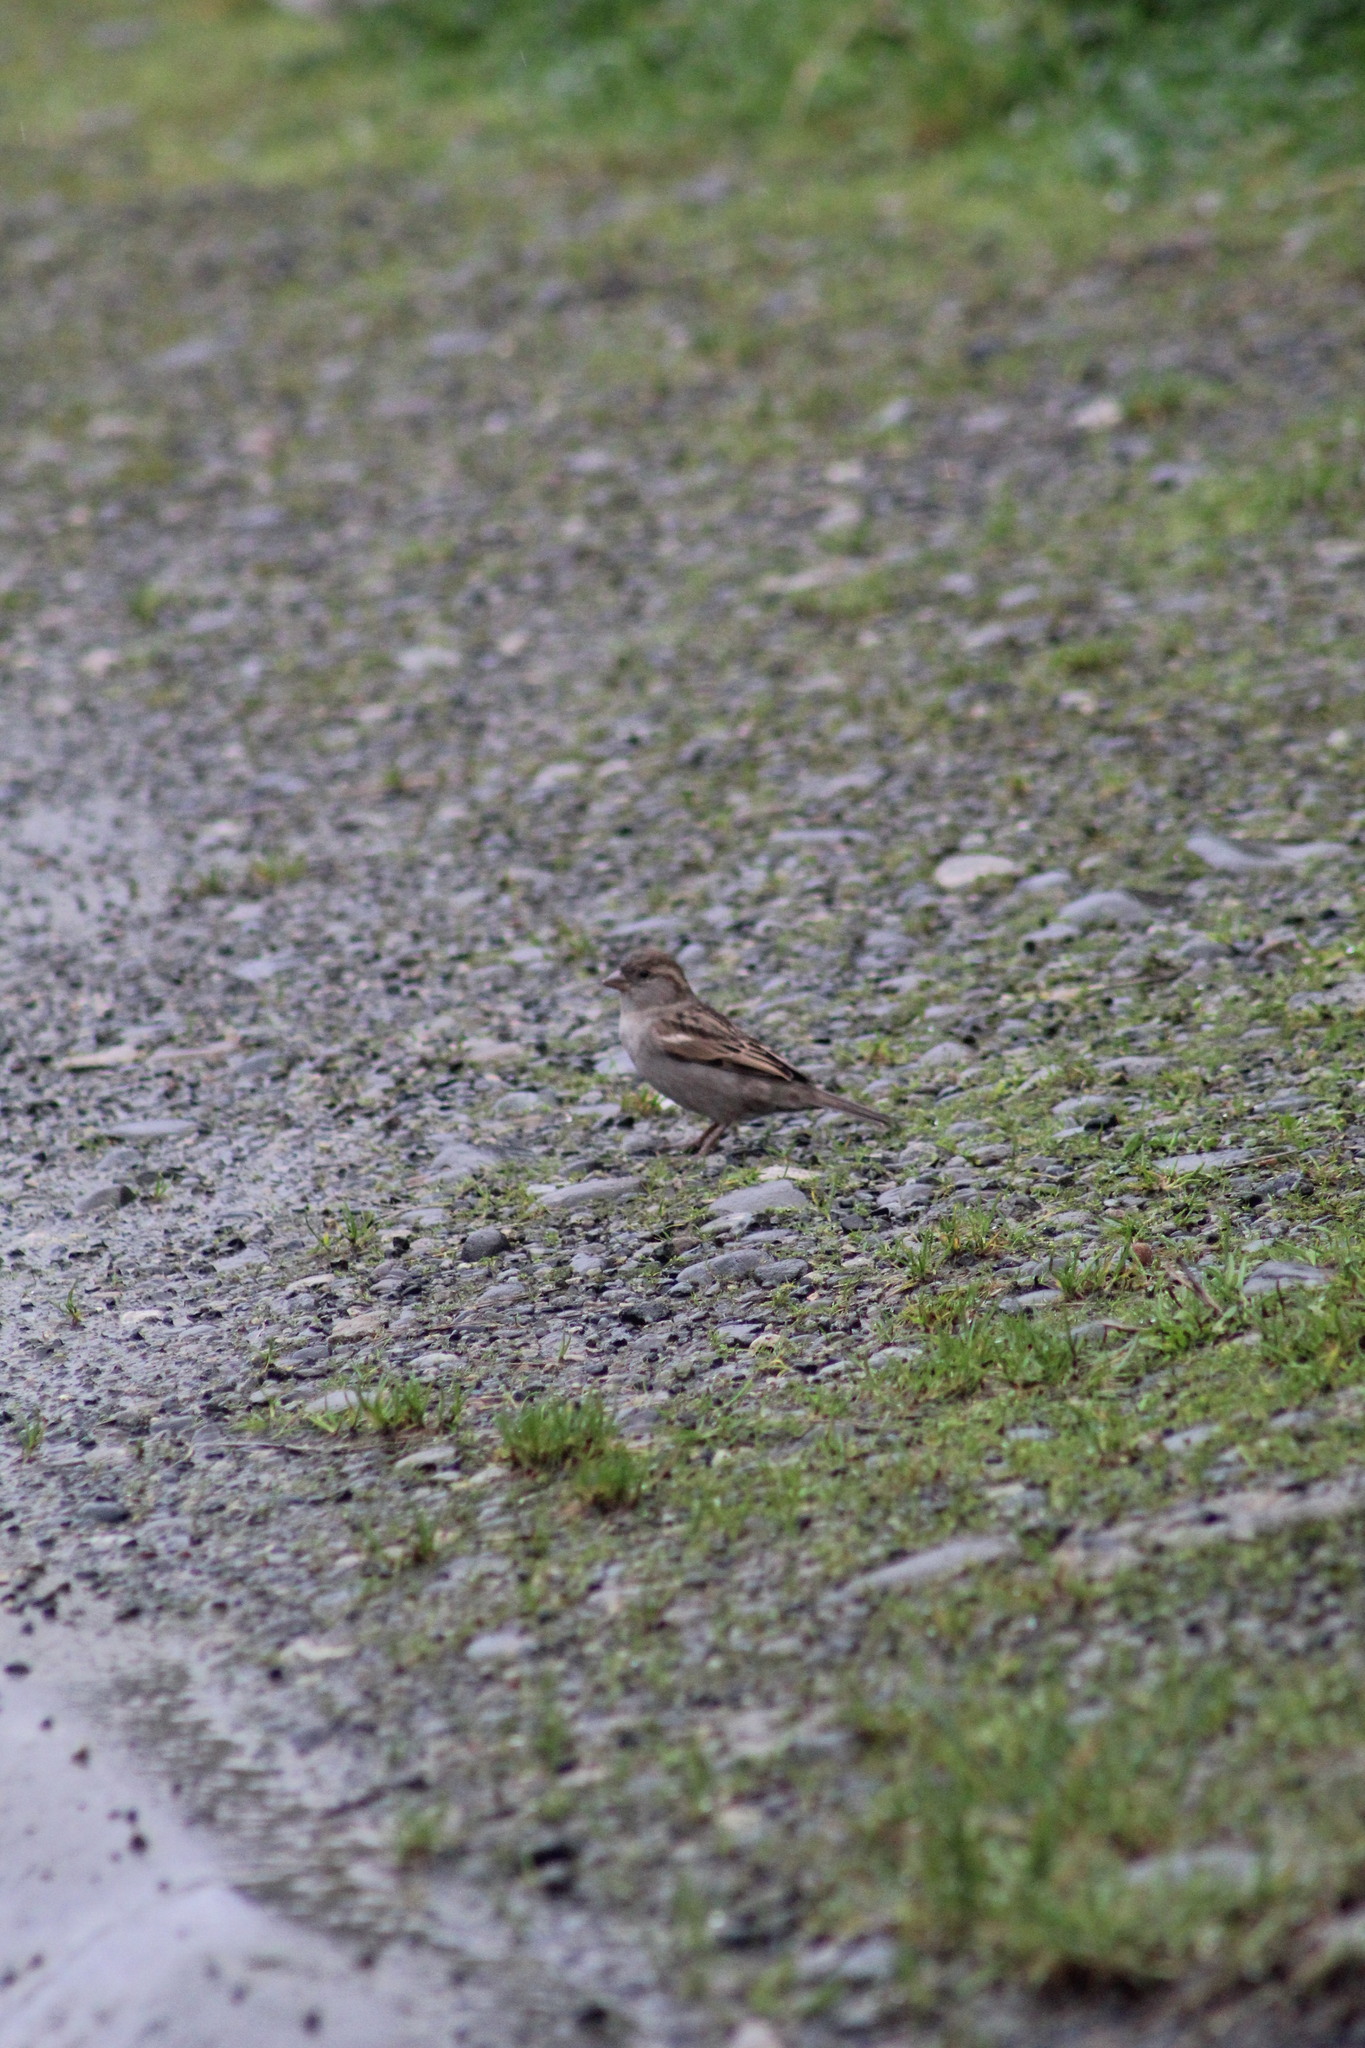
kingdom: Animalia
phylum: Chordata
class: Aves
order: Passeriformes
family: Passeridae
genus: Passer
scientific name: Passer domesticus
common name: House sparrow
